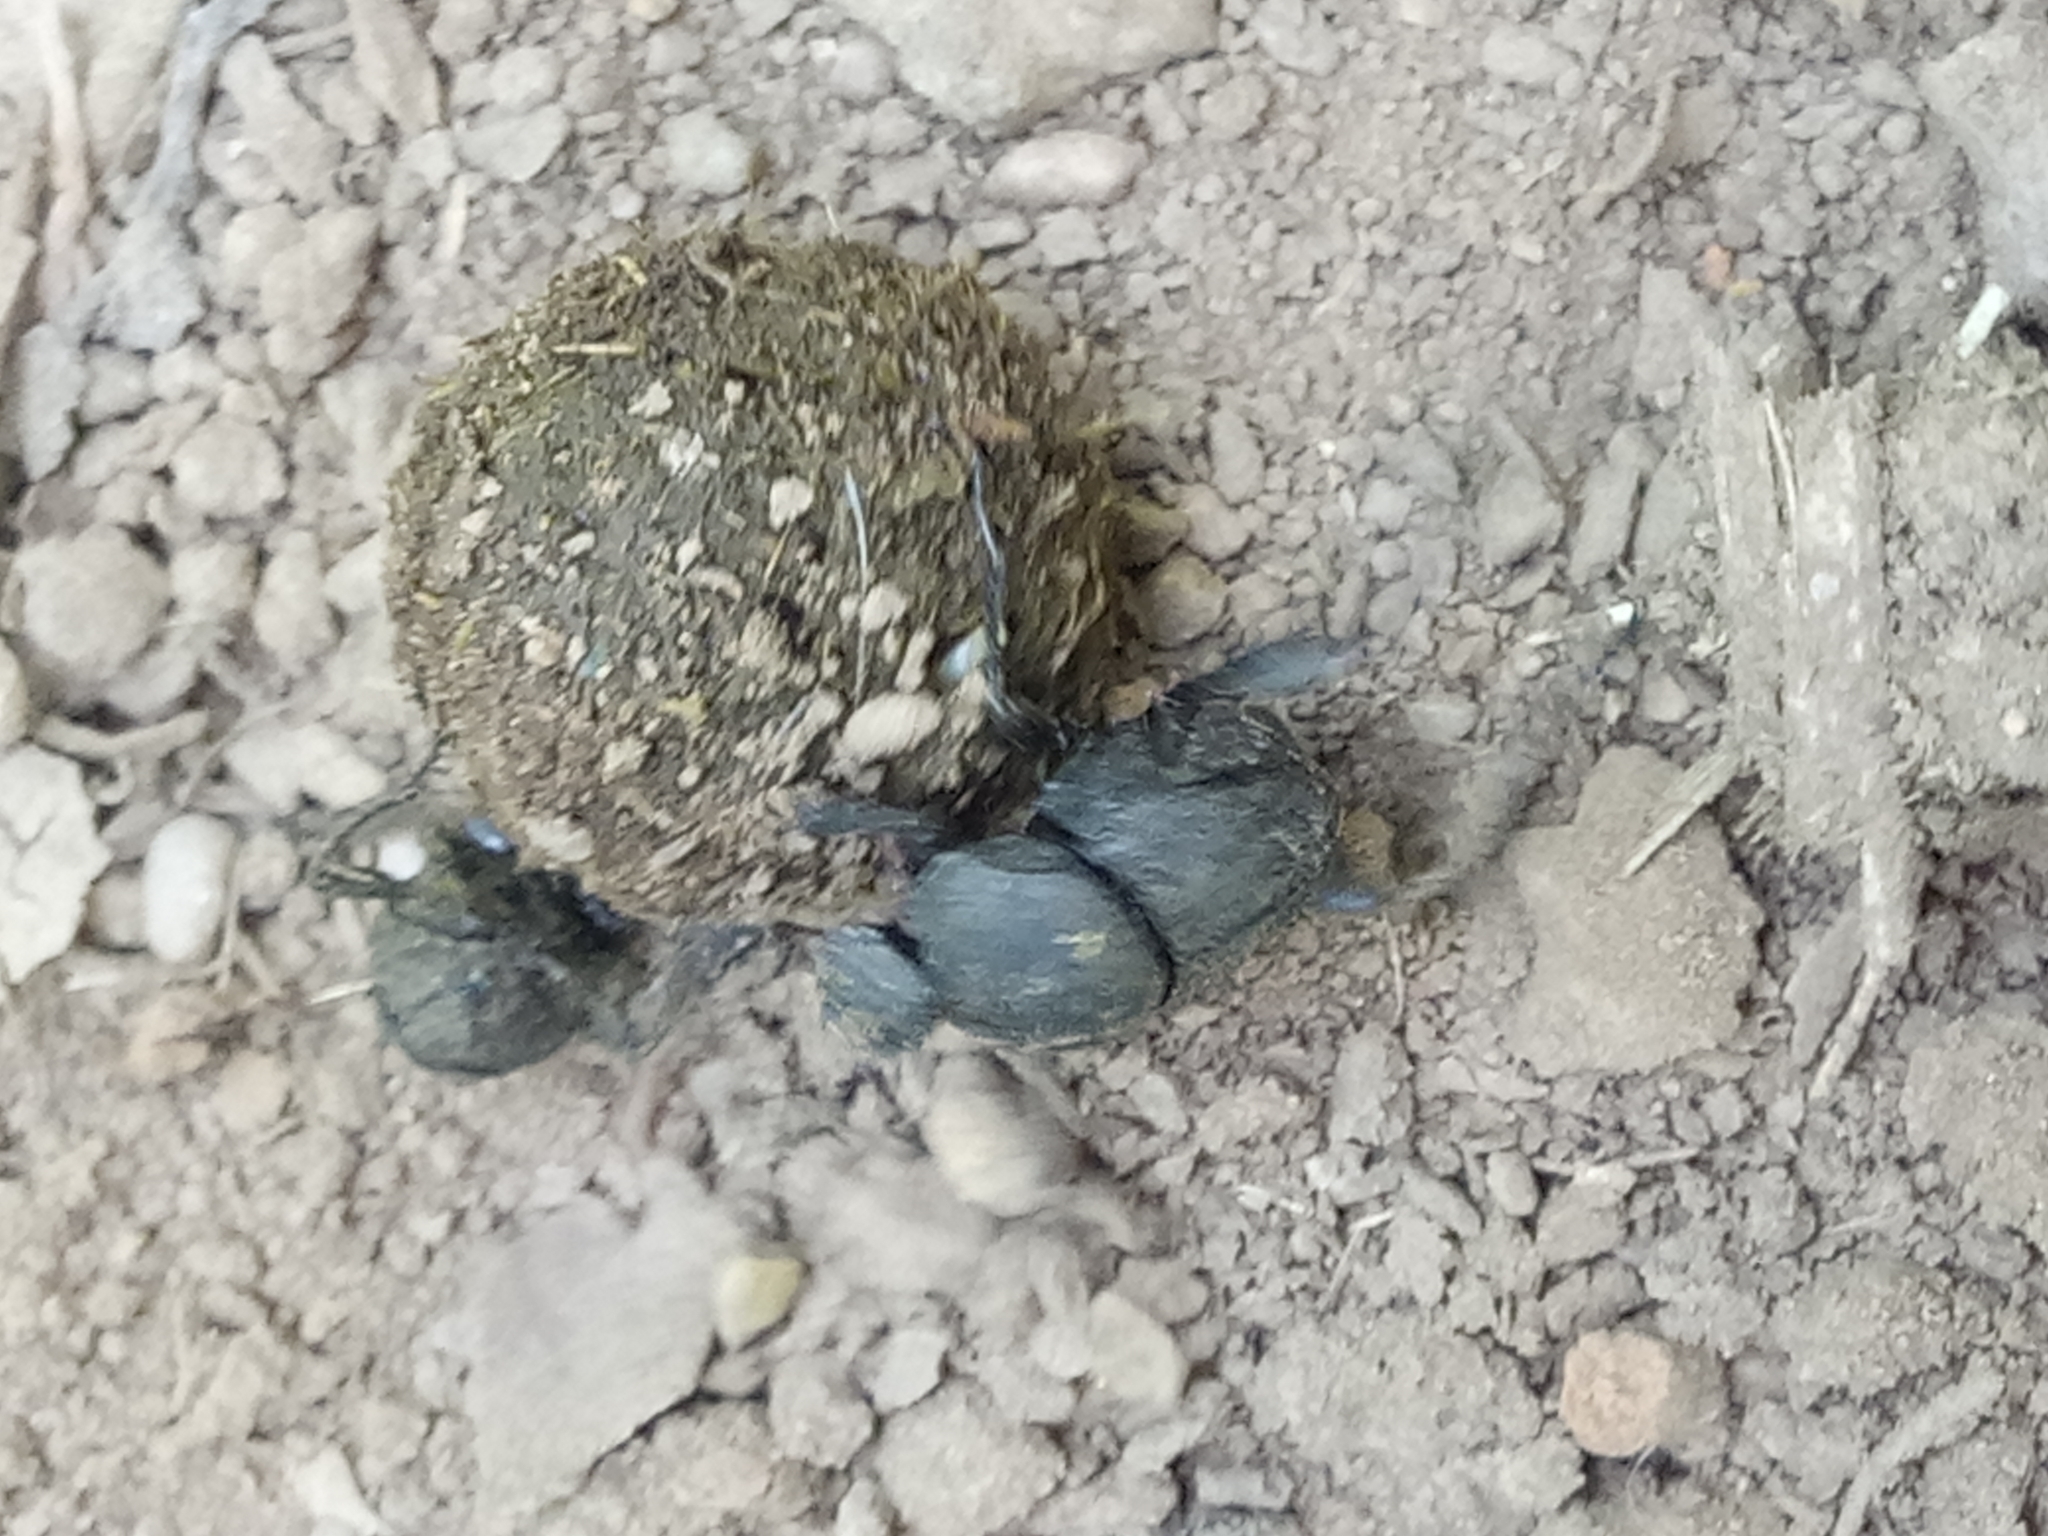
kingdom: Animalia
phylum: Arthropoda
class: Insecta
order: Coleoptera
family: Scarabaeidae
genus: Sisyphus
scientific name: Sisyphus schaefferi
